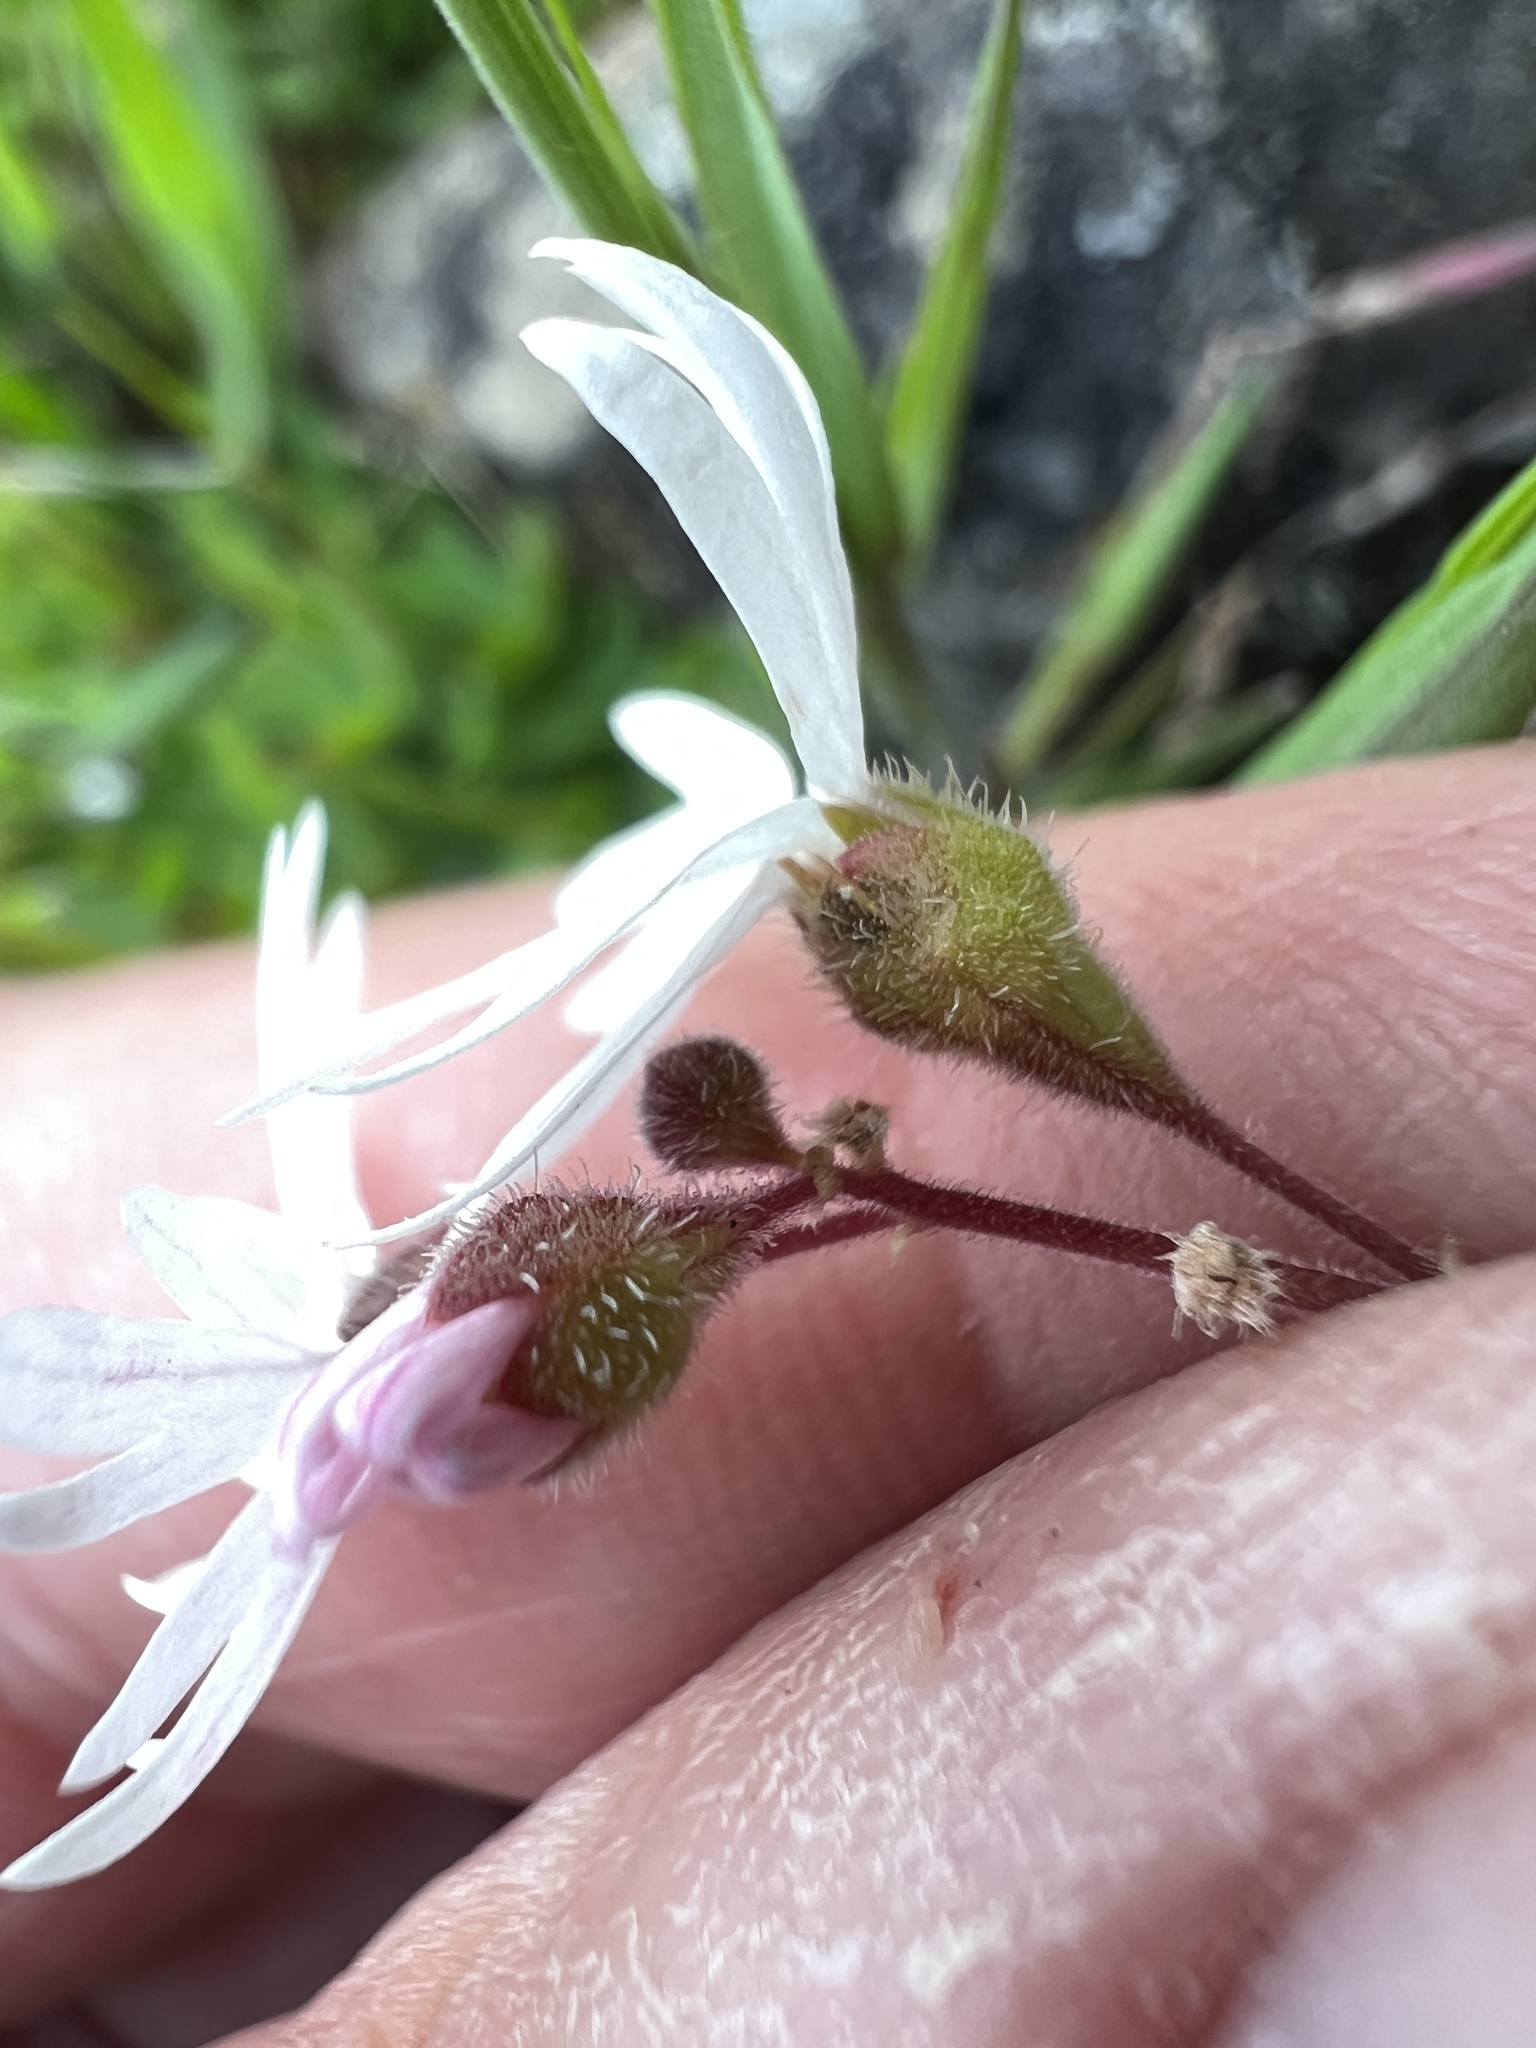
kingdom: Plantae
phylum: Tracheophyta
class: Magnoliopsida
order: Saxifragales
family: Saxifragaceae
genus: Lithophragma
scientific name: Lithophragma parviflorum
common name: Small-flowered fringe-cup
